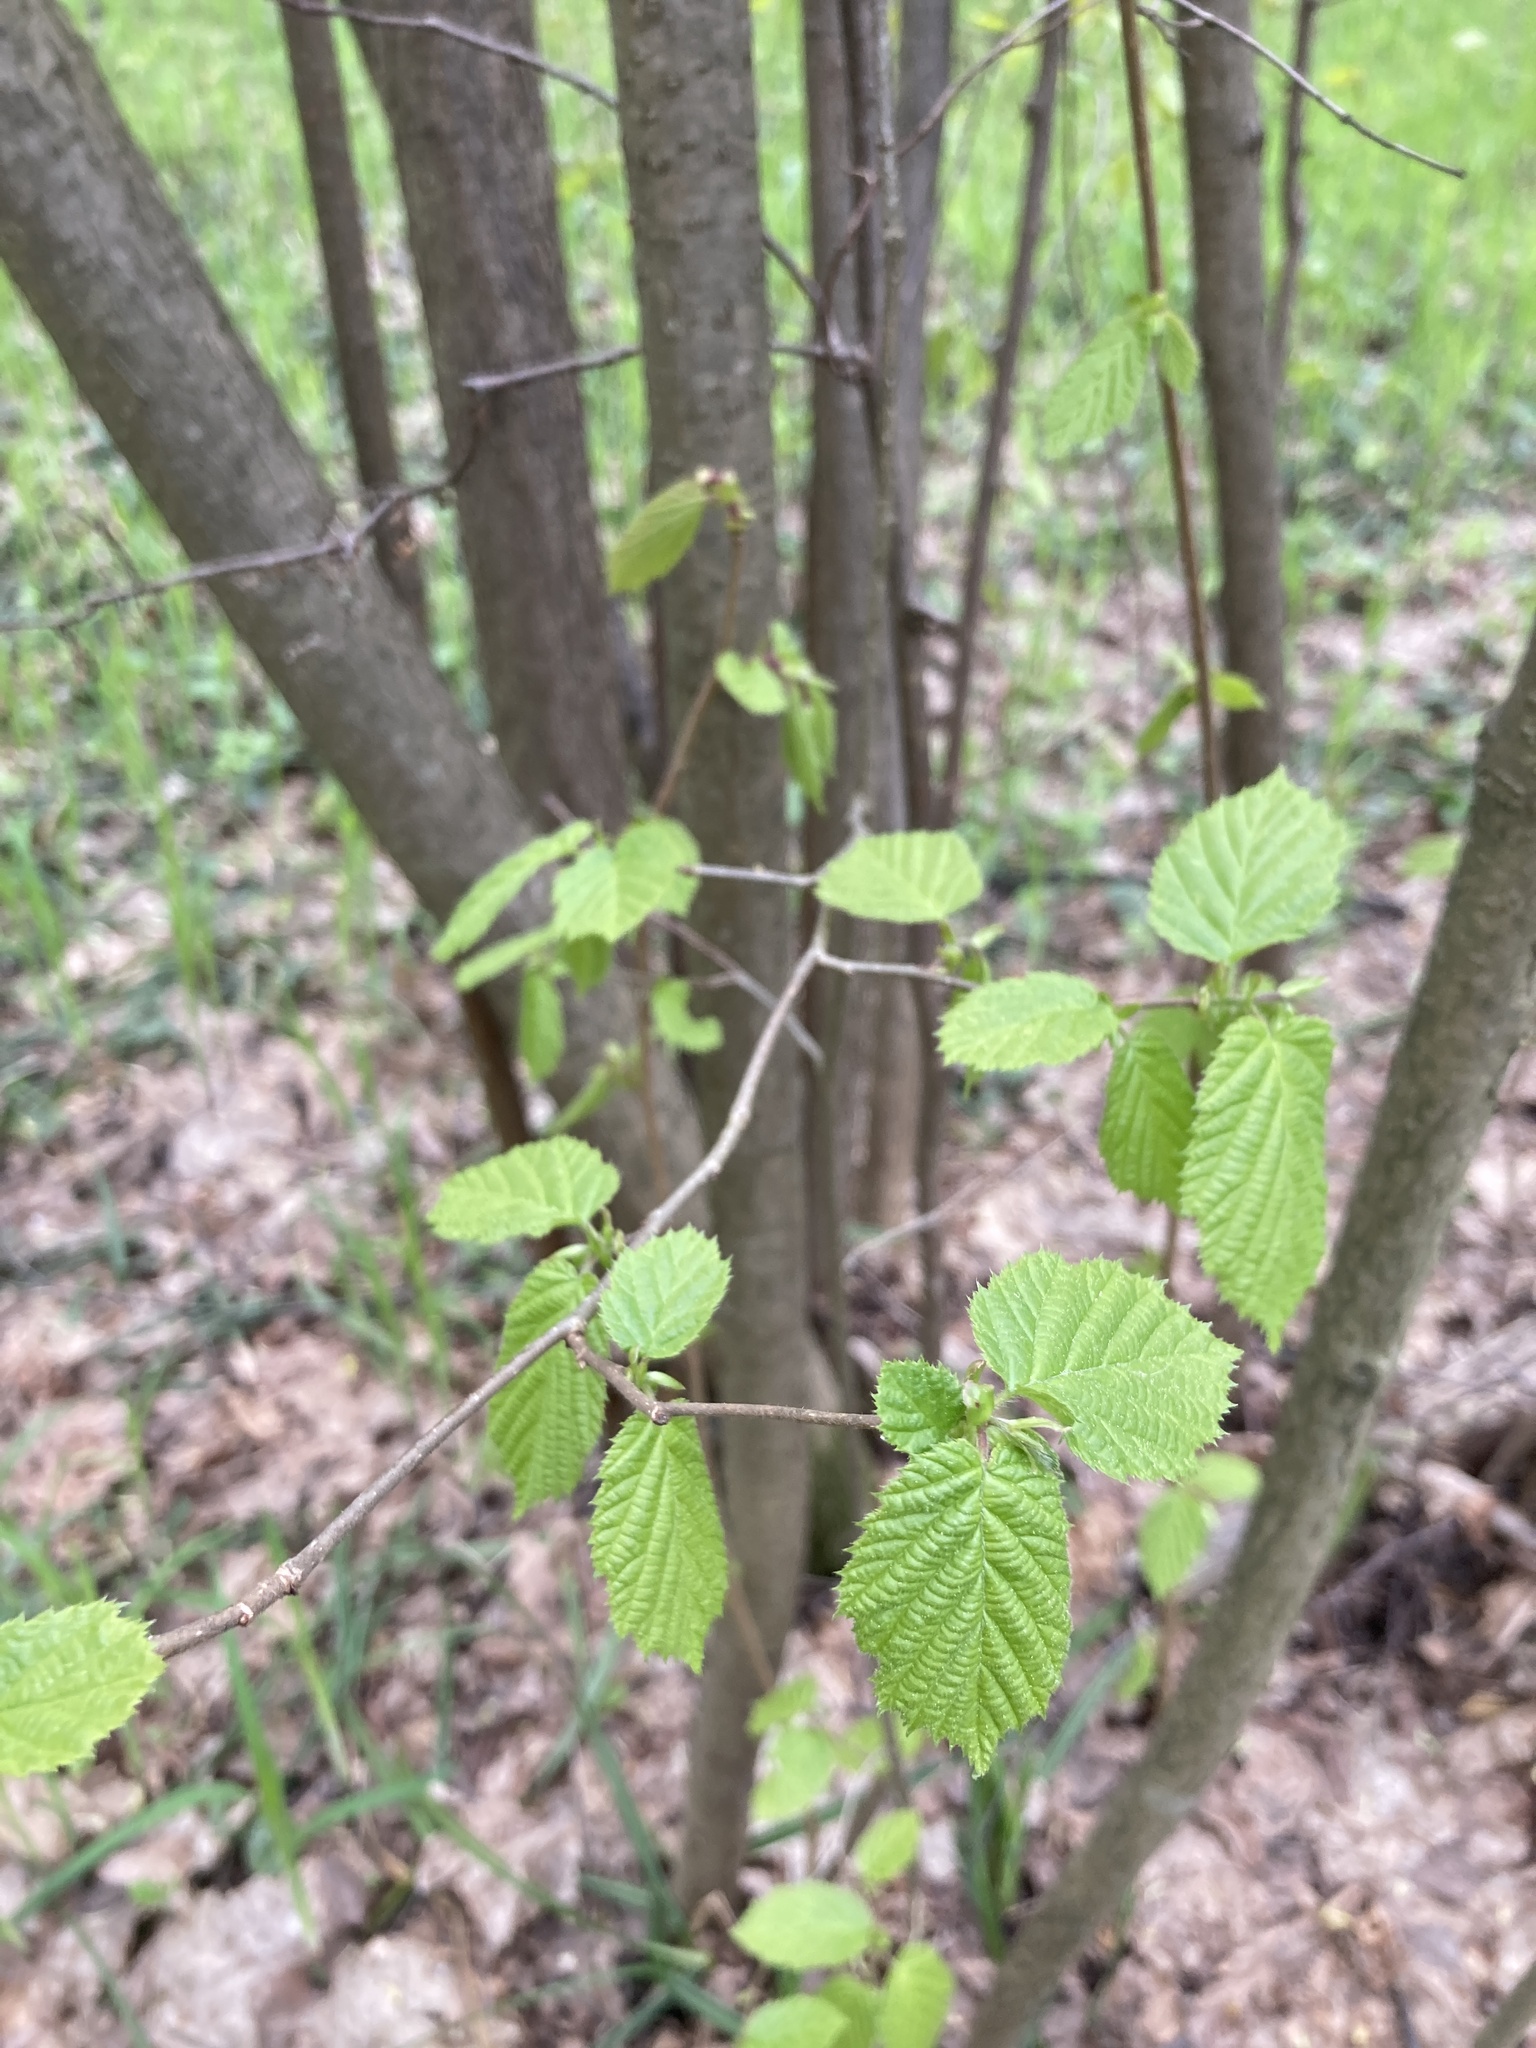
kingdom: Plantae
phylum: Tracheophyta
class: Magnoliopsida
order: Fagales
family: Betulaceae
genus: Corylus
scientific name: Corylus avellana
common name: European hazel
